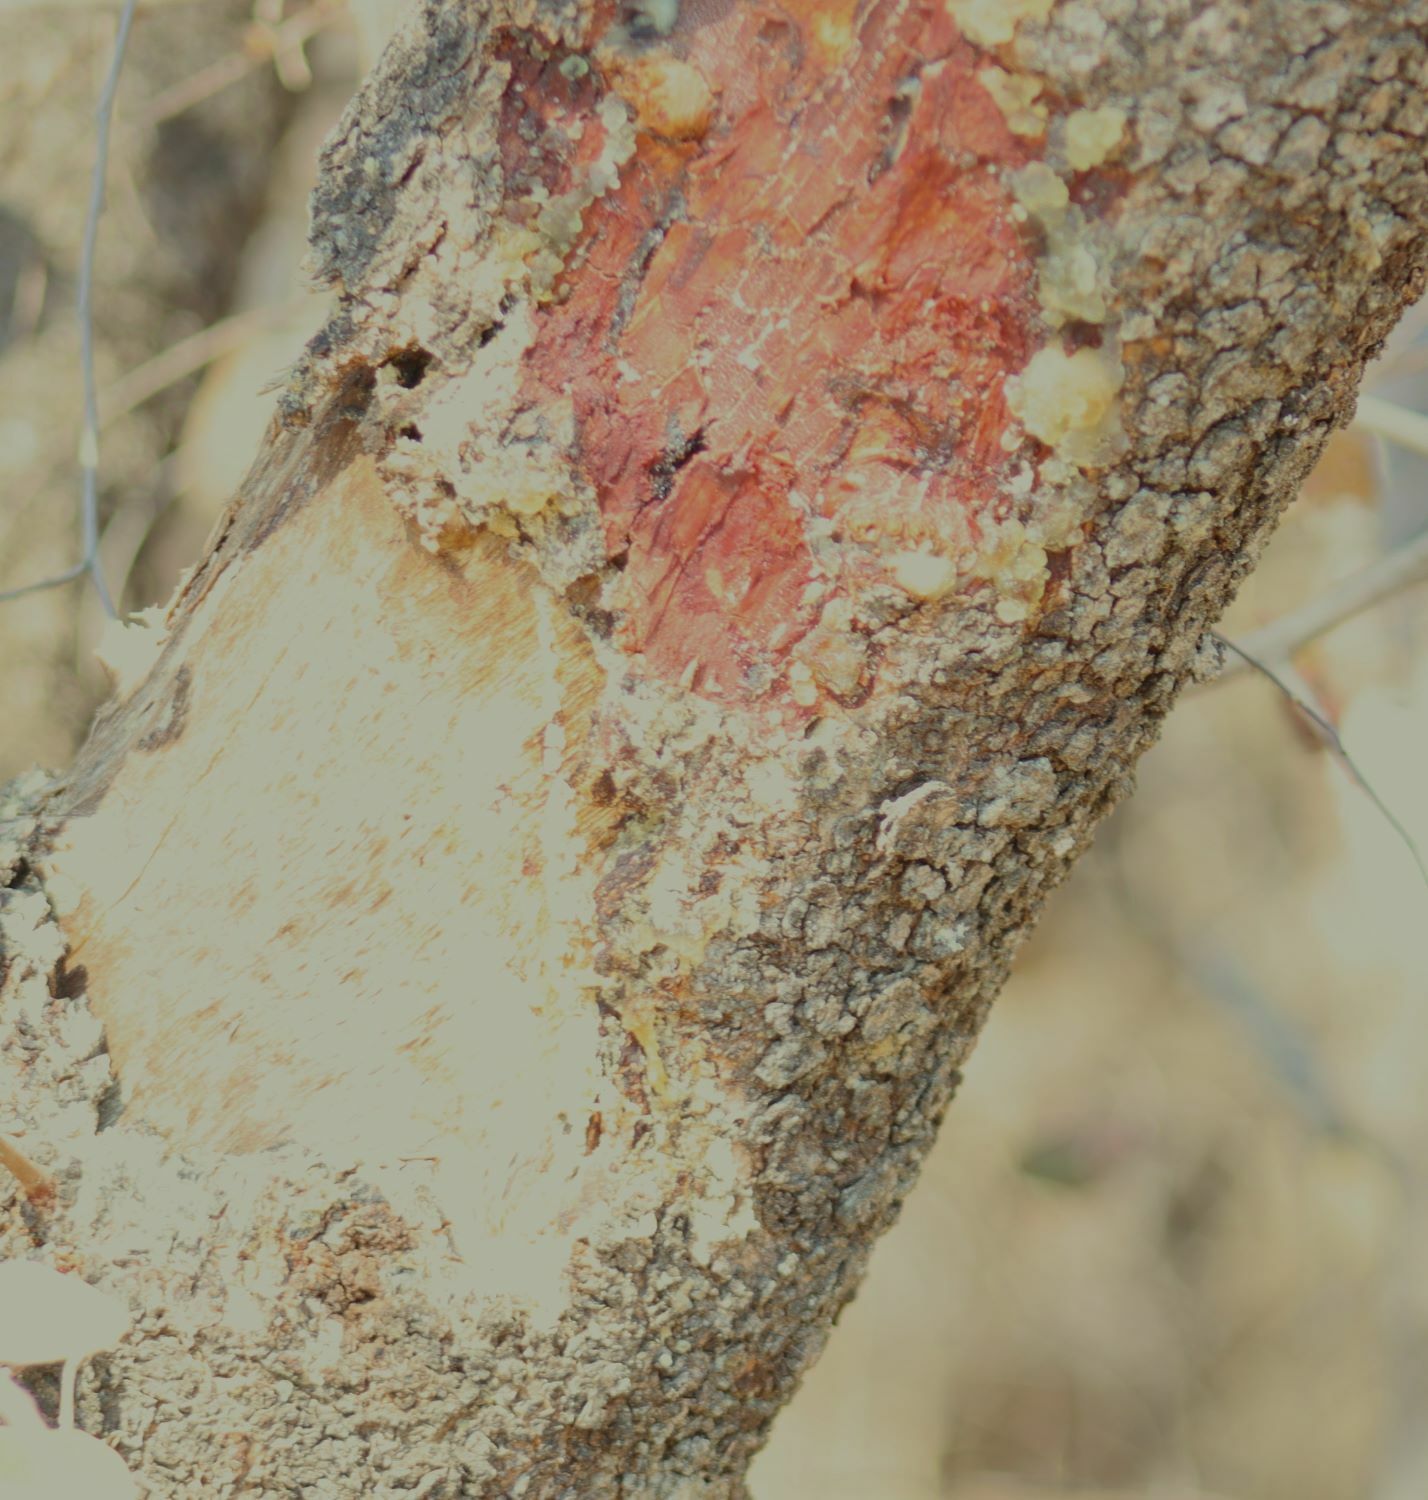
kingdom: Plantae
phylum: Tracheophyta
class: Magnoliopsida
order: Sapindales
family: Anacardiaceae
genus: Ozoroa
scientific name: Ozoroa paniculosa
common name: Bushveld ozoroa
